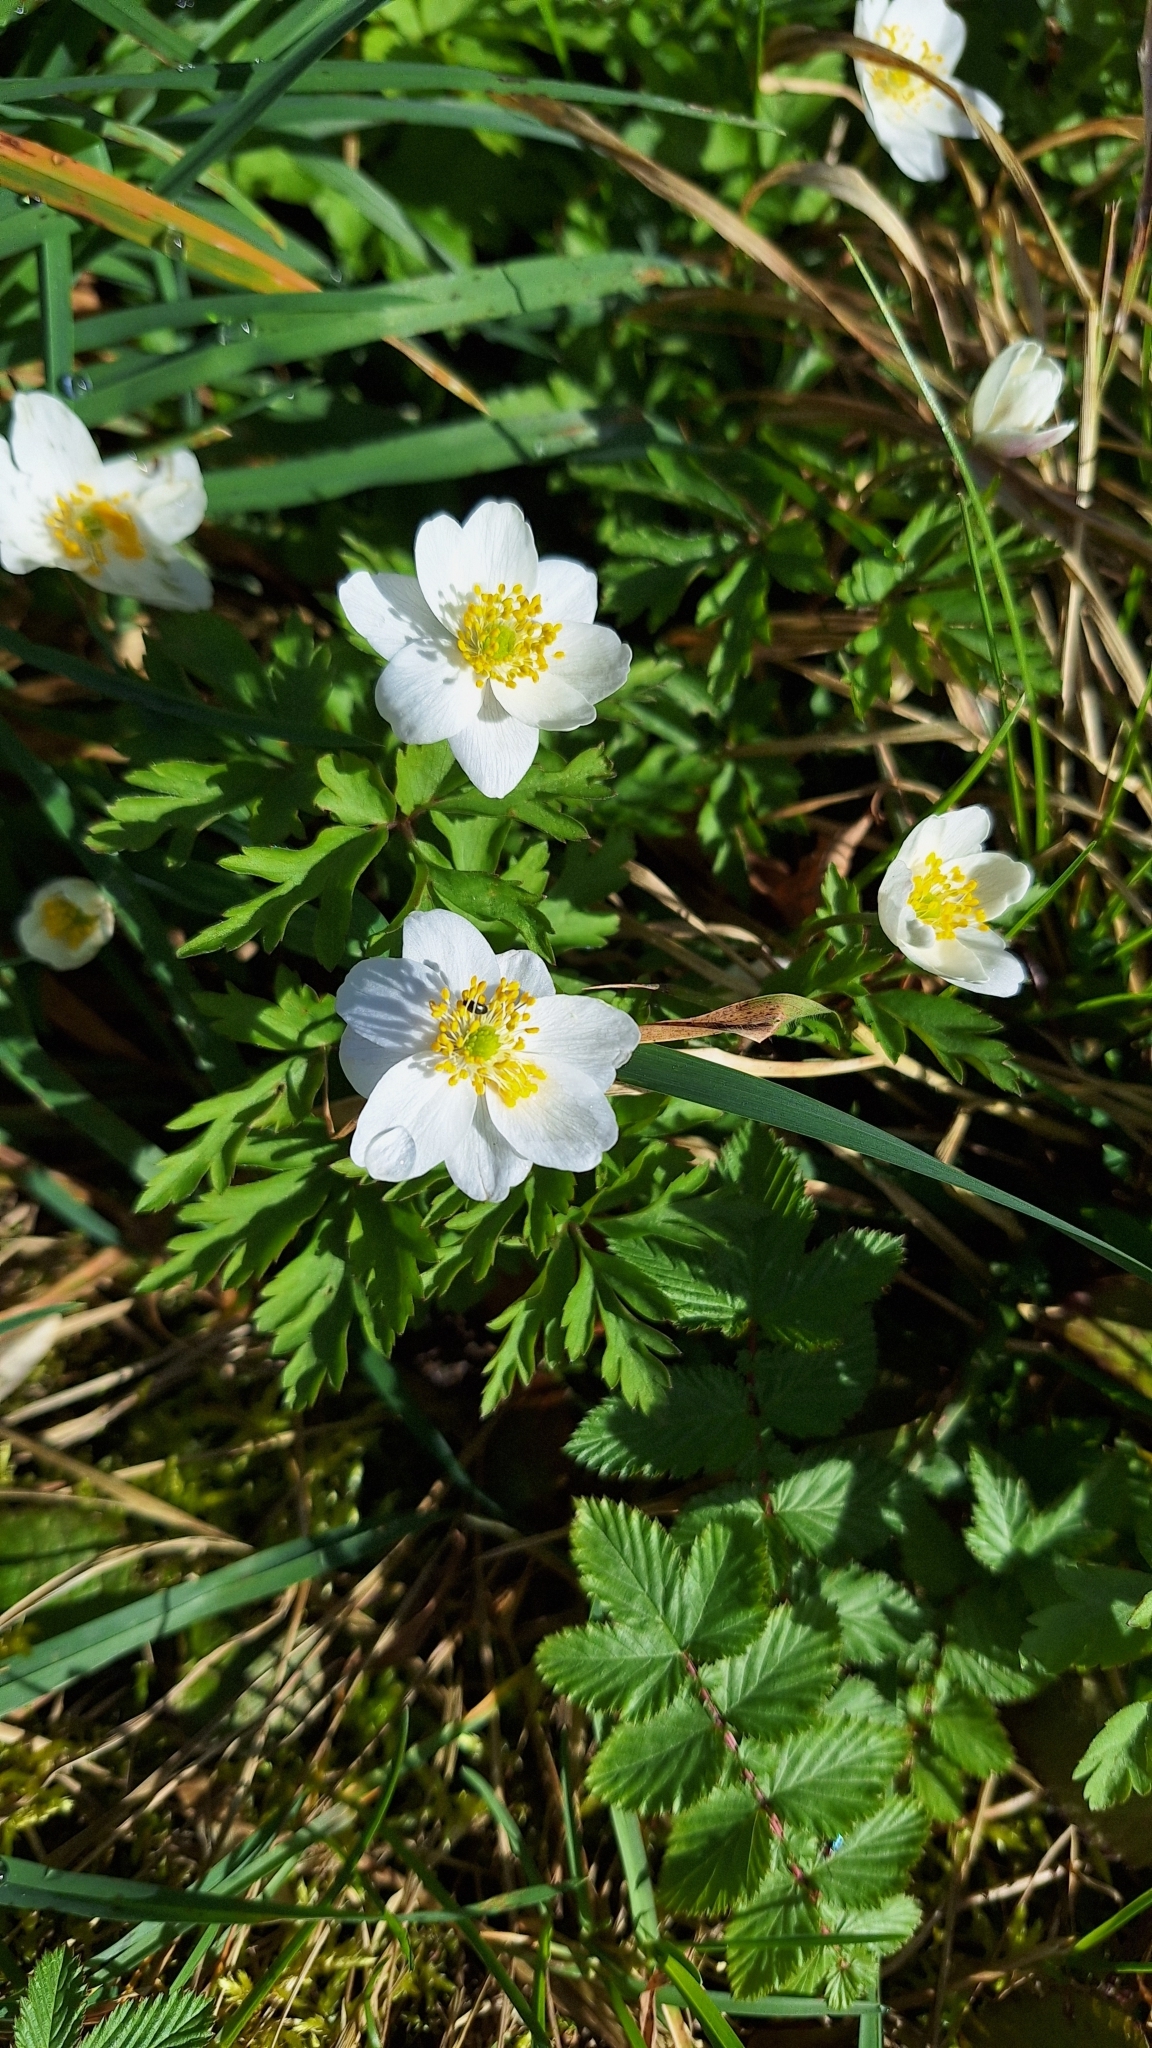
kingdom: Plantae
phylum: Tracheophyta
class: Magnoliopsida
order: Ranunculales
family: Ranunculaceae
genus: Anemone
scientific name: Anemone nemorosa
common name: Wood anemone
